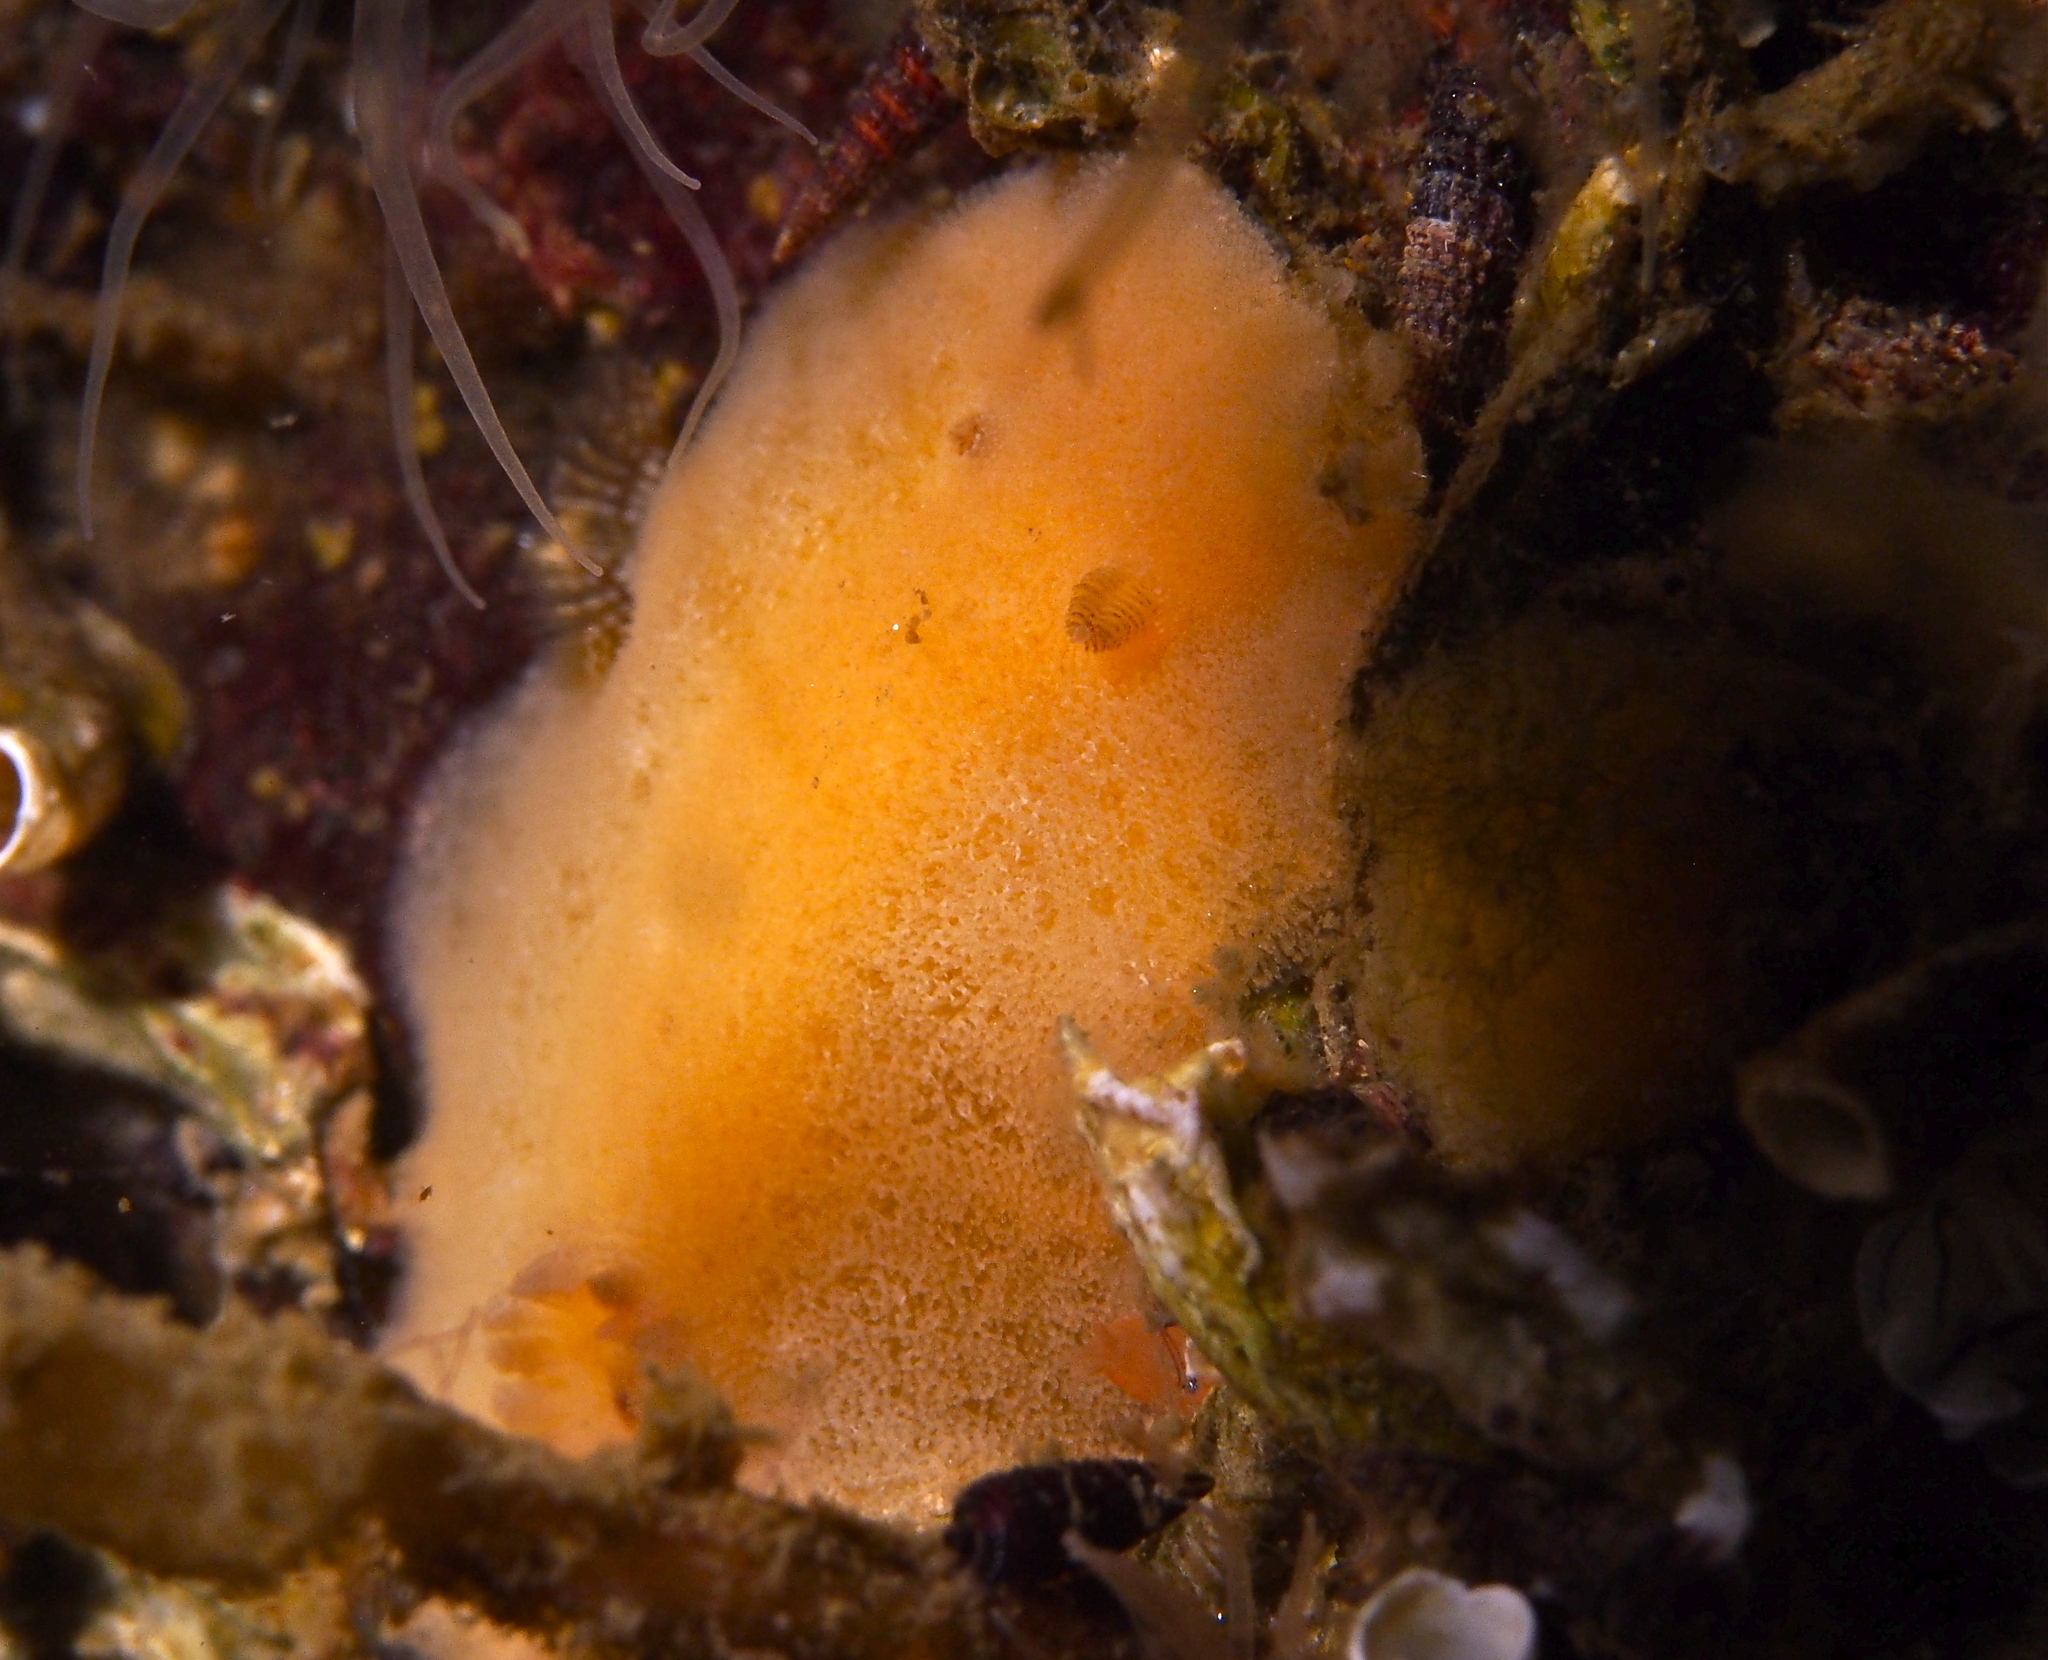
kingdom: Animalia
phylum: Mollusca
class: Gastropoda
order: Nudibranchia
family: Discodorididae
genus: Jorunna
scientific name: Jorunna tomentosa
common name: Grey sea slug
